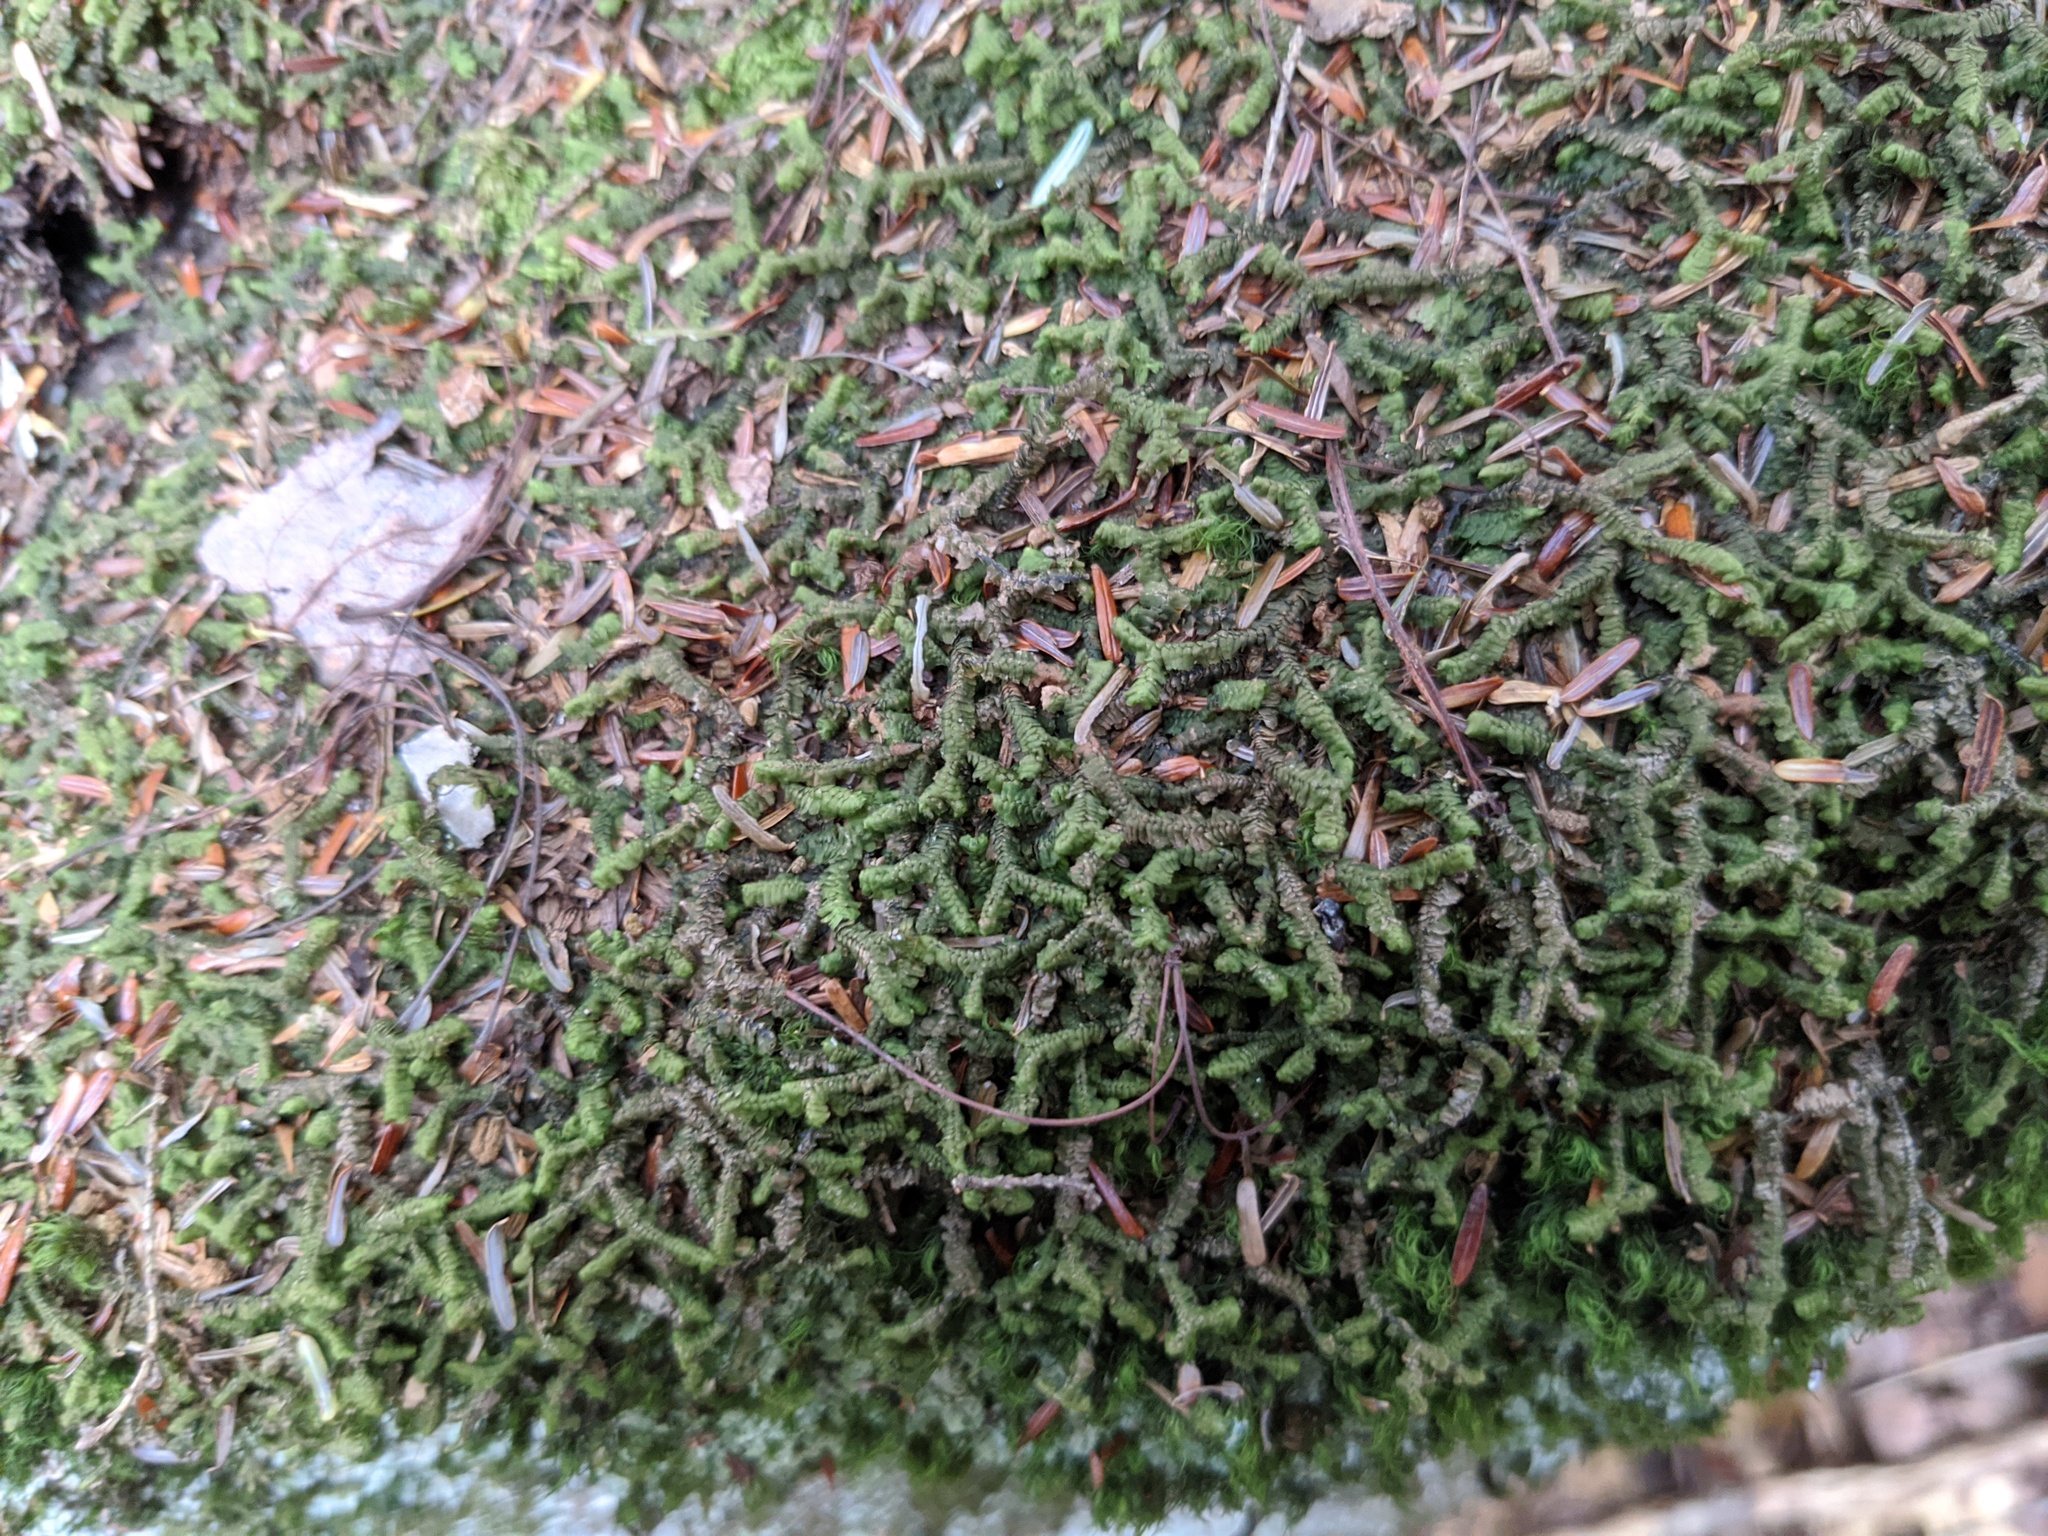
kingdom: Plantae
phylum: Marchantiophyta
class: Jungermanniopsida
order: Jungermanniales
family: Lepidoziaceae
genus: Bazzania
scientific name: Bazzania trilobata
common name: Three-lobed whipwort
